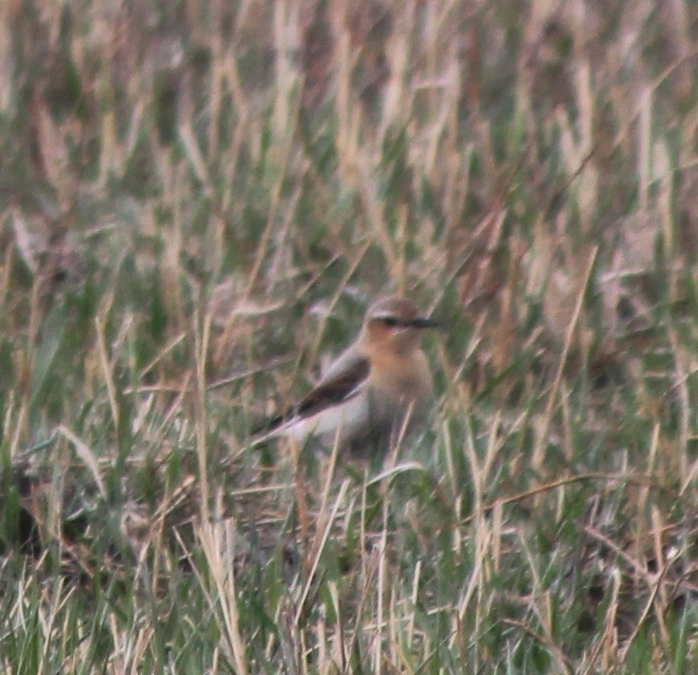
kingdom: Animalia
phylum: Chordata
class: Aves
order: Passeriformes
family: Muscicapidae
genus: Oenanthe
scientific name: Oenanthe oenanthe
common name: Northern wheatear
